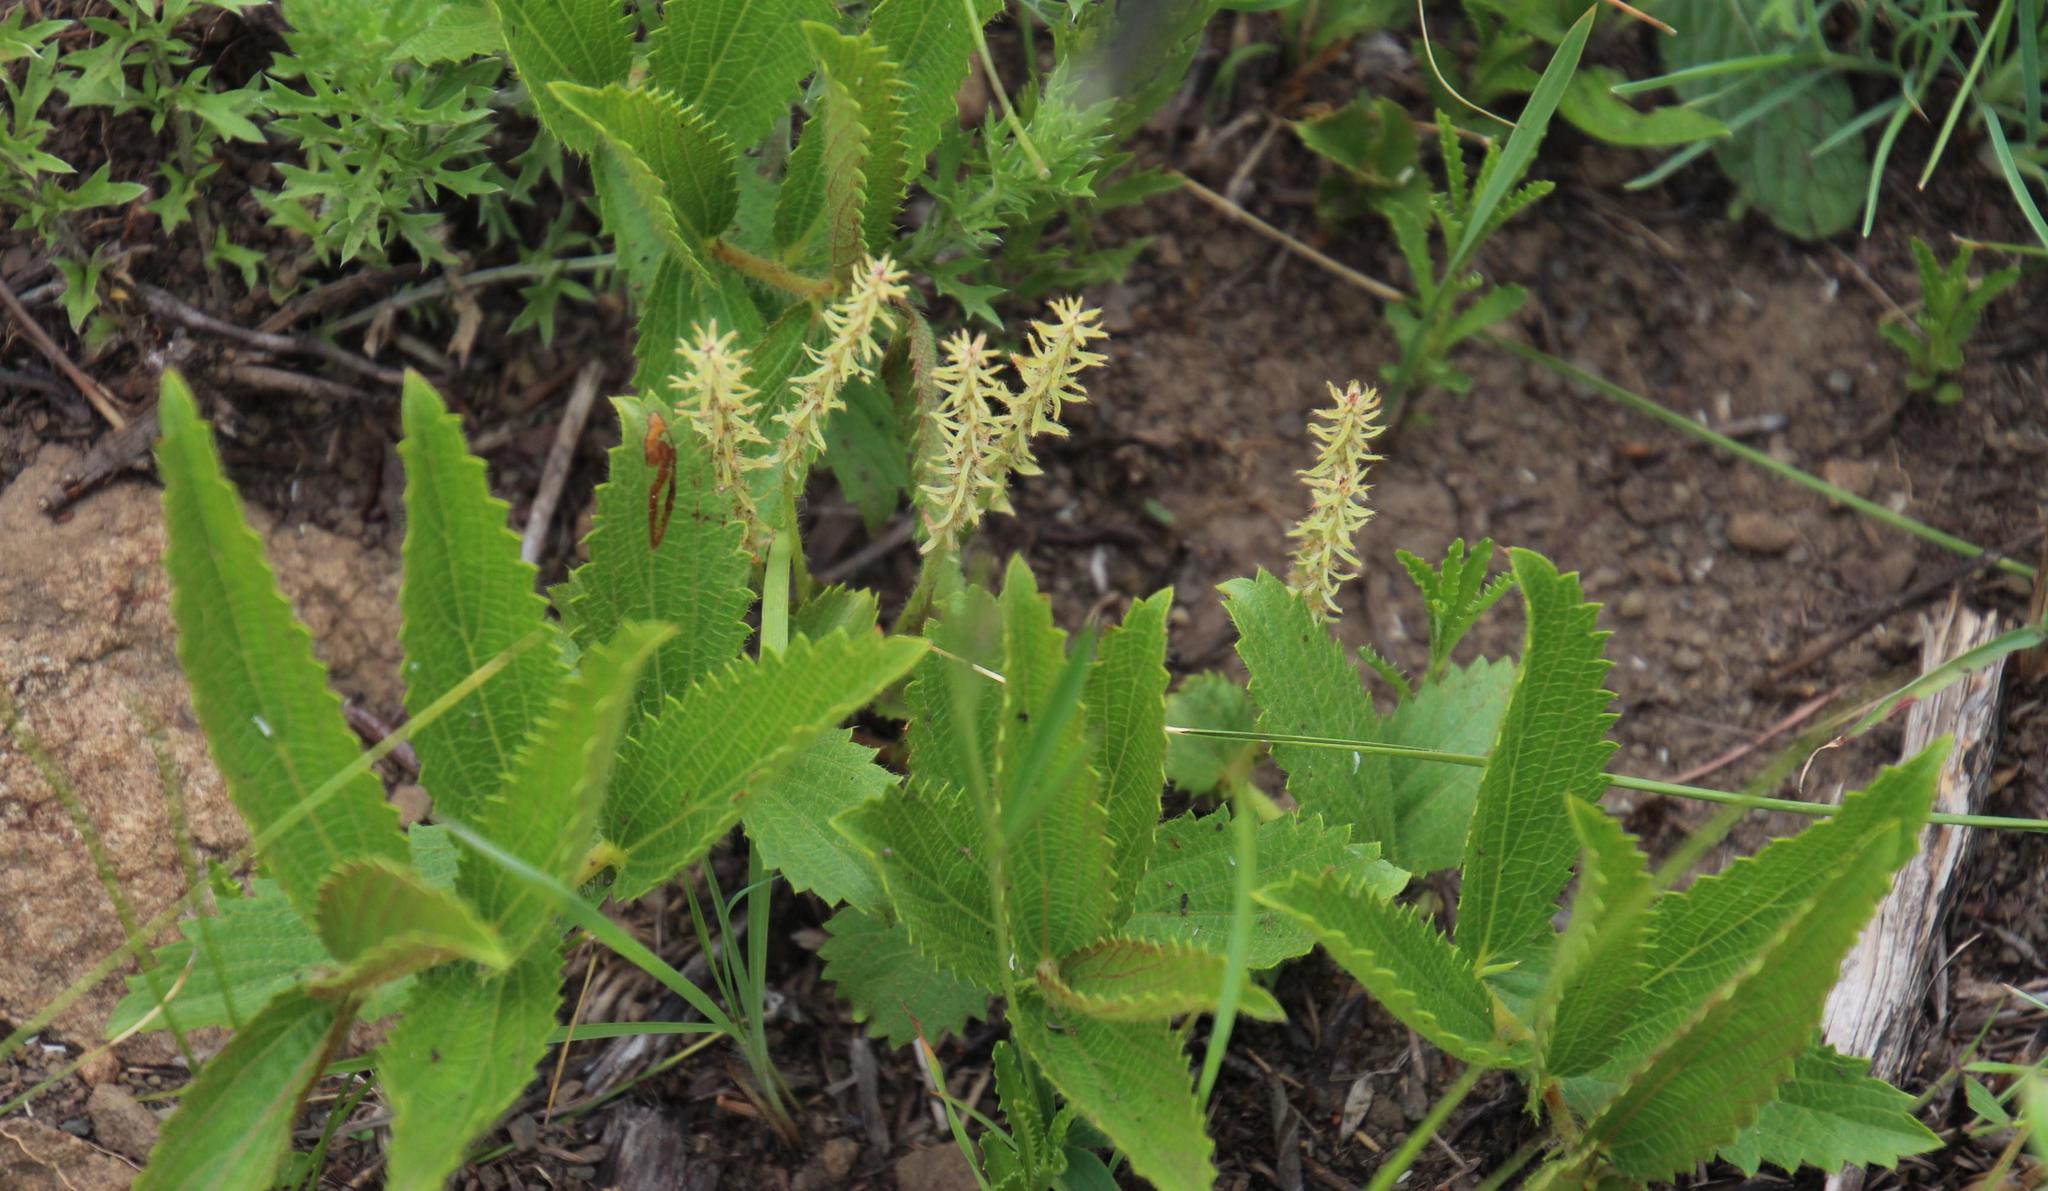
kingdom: Plantae
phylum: Tracheophyta
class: Magnoliopsida
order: Malpighiales
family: Euphorbiaceae
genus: Acalypha
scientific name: Acalypha punctata
